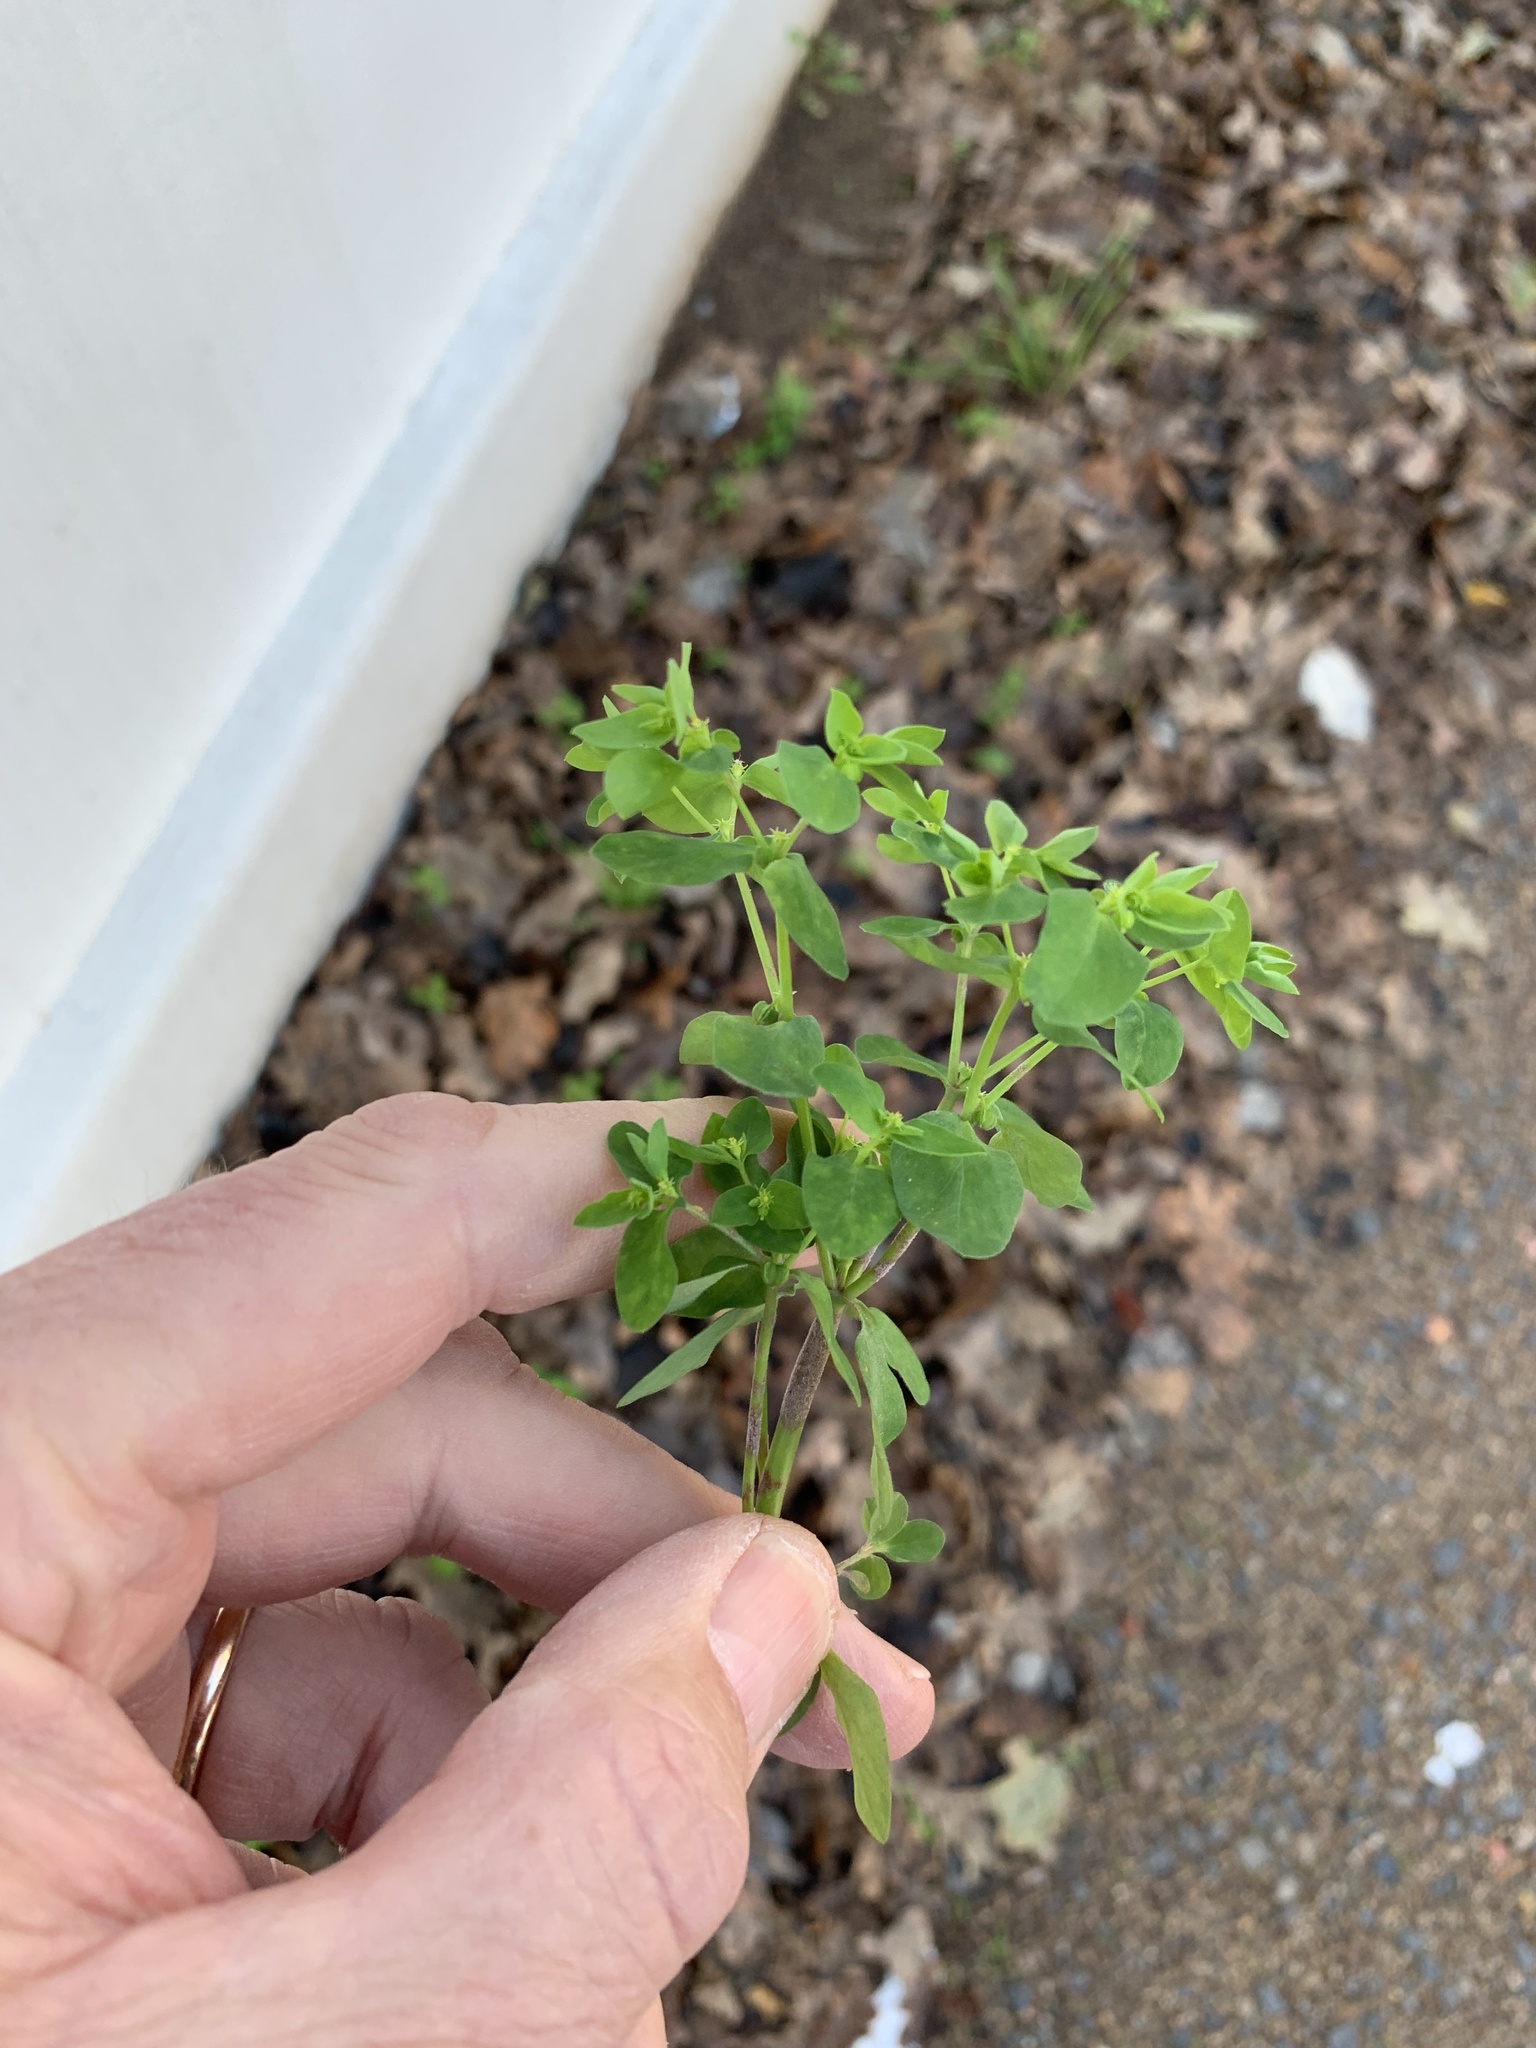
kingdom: Plantae
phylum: Tracheophyta
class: Magnoliopsida
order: Malpighiales
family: Euphorbiaceae
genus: Euphorbia
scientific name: Euphorbia peplus
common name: Petty spurge
